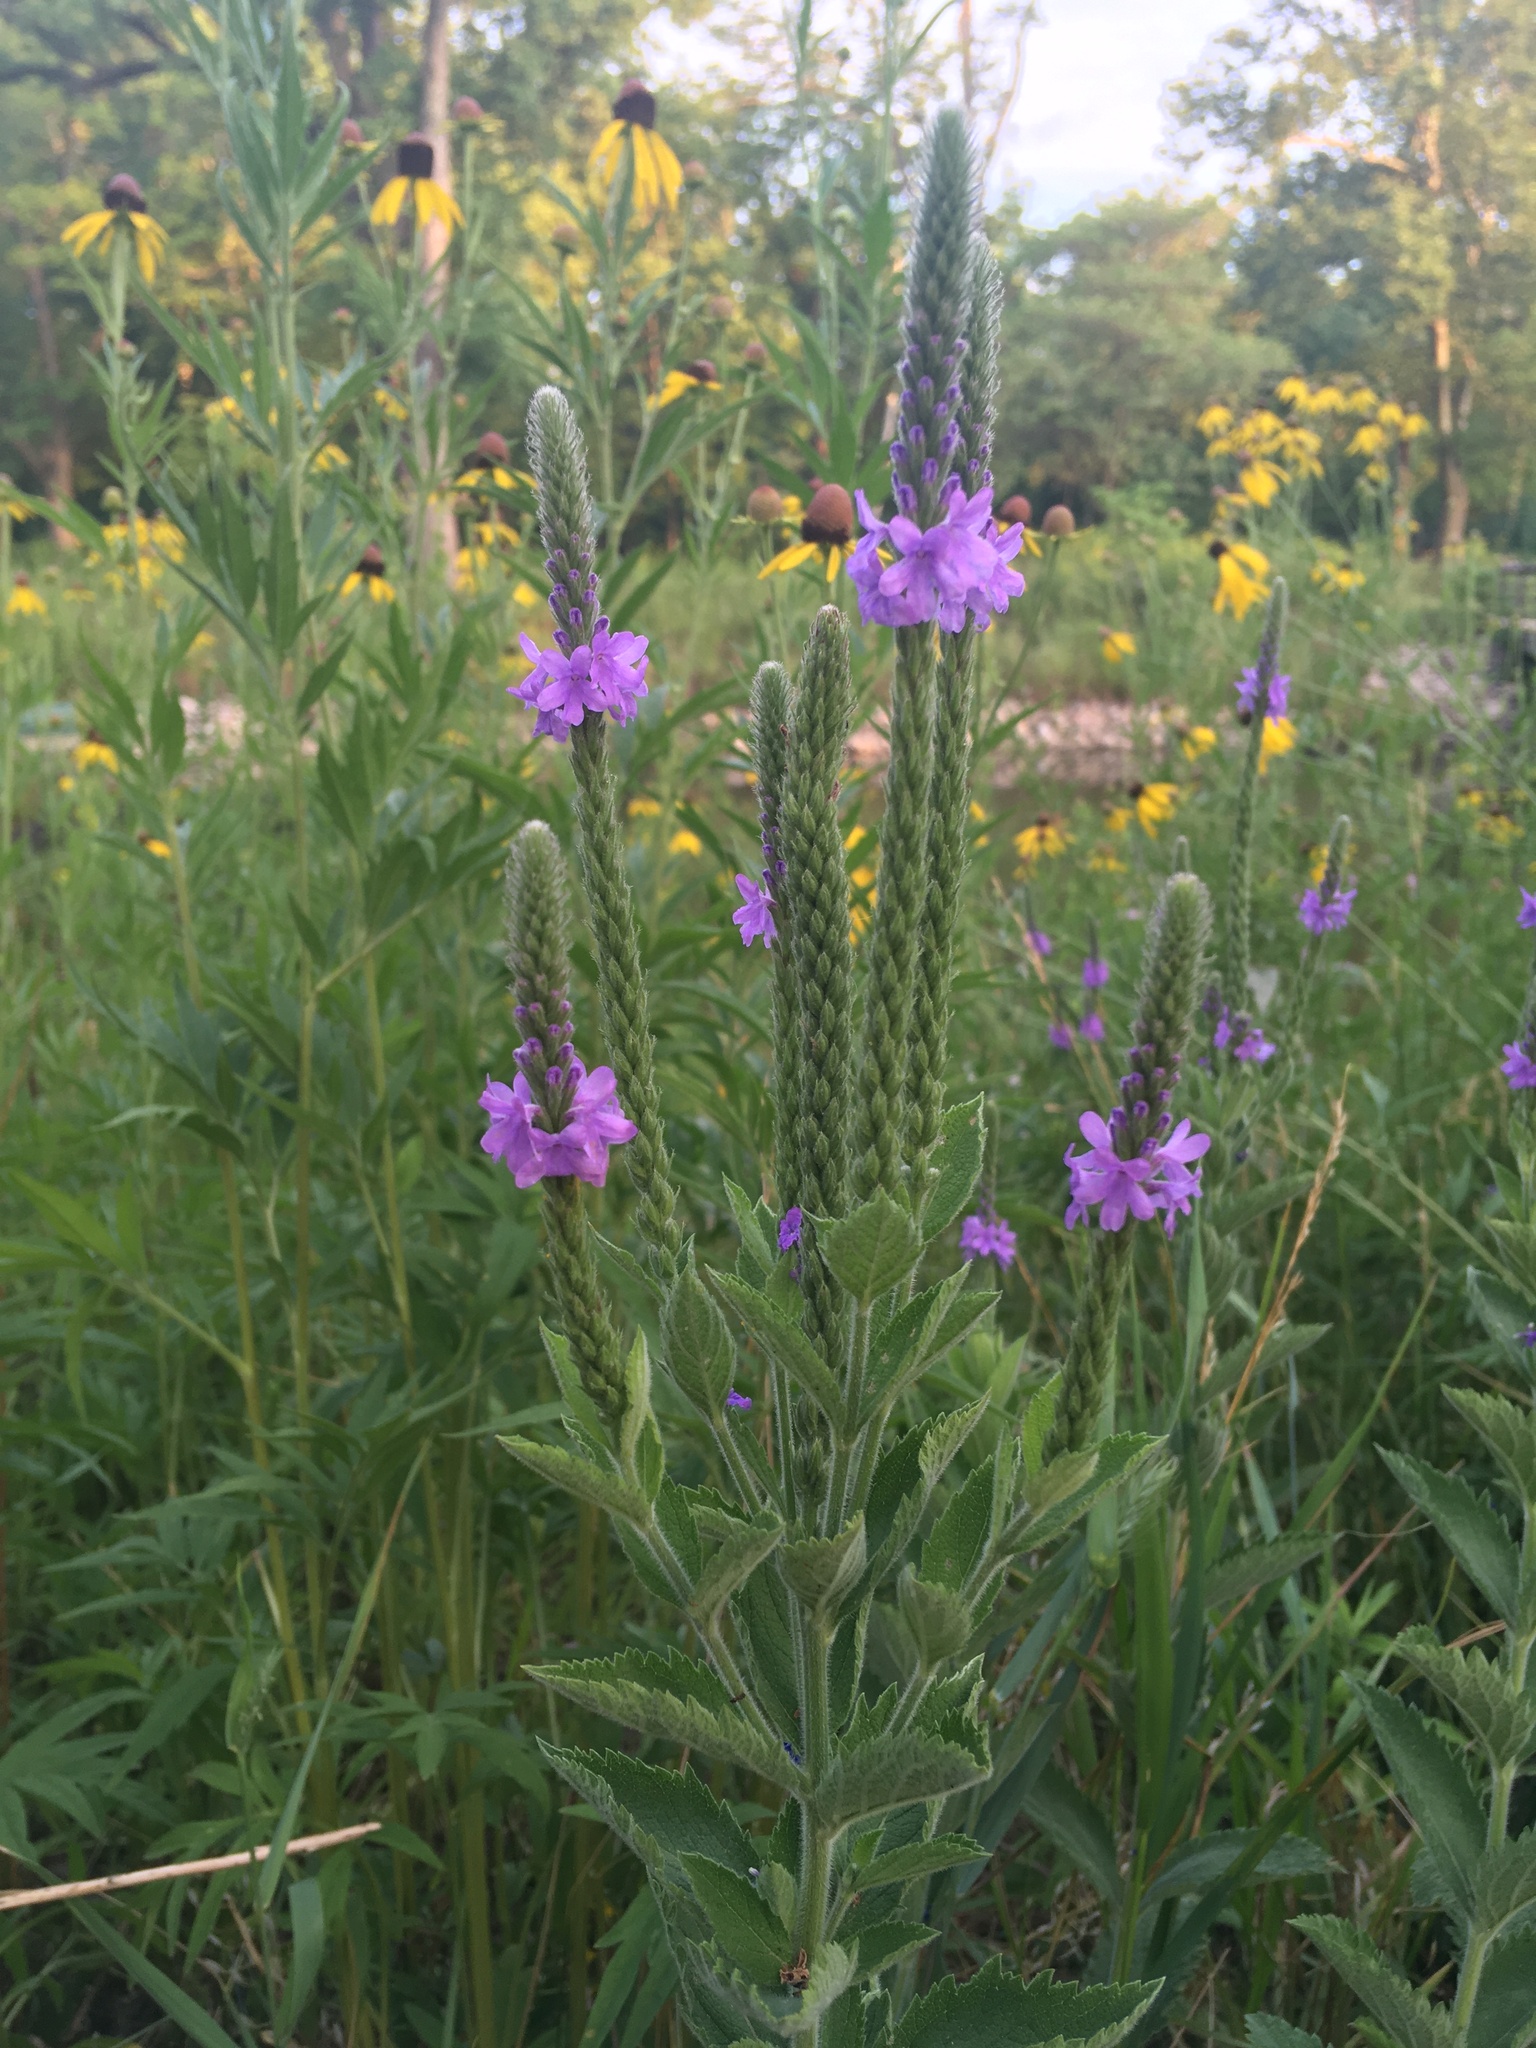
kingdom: Plantae
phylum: Tracheophyta
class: Magnoliopsida
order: Lamiales
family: Verbenaceae
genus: Verbena
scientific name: Verbena stricta
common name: Hoary vervain
